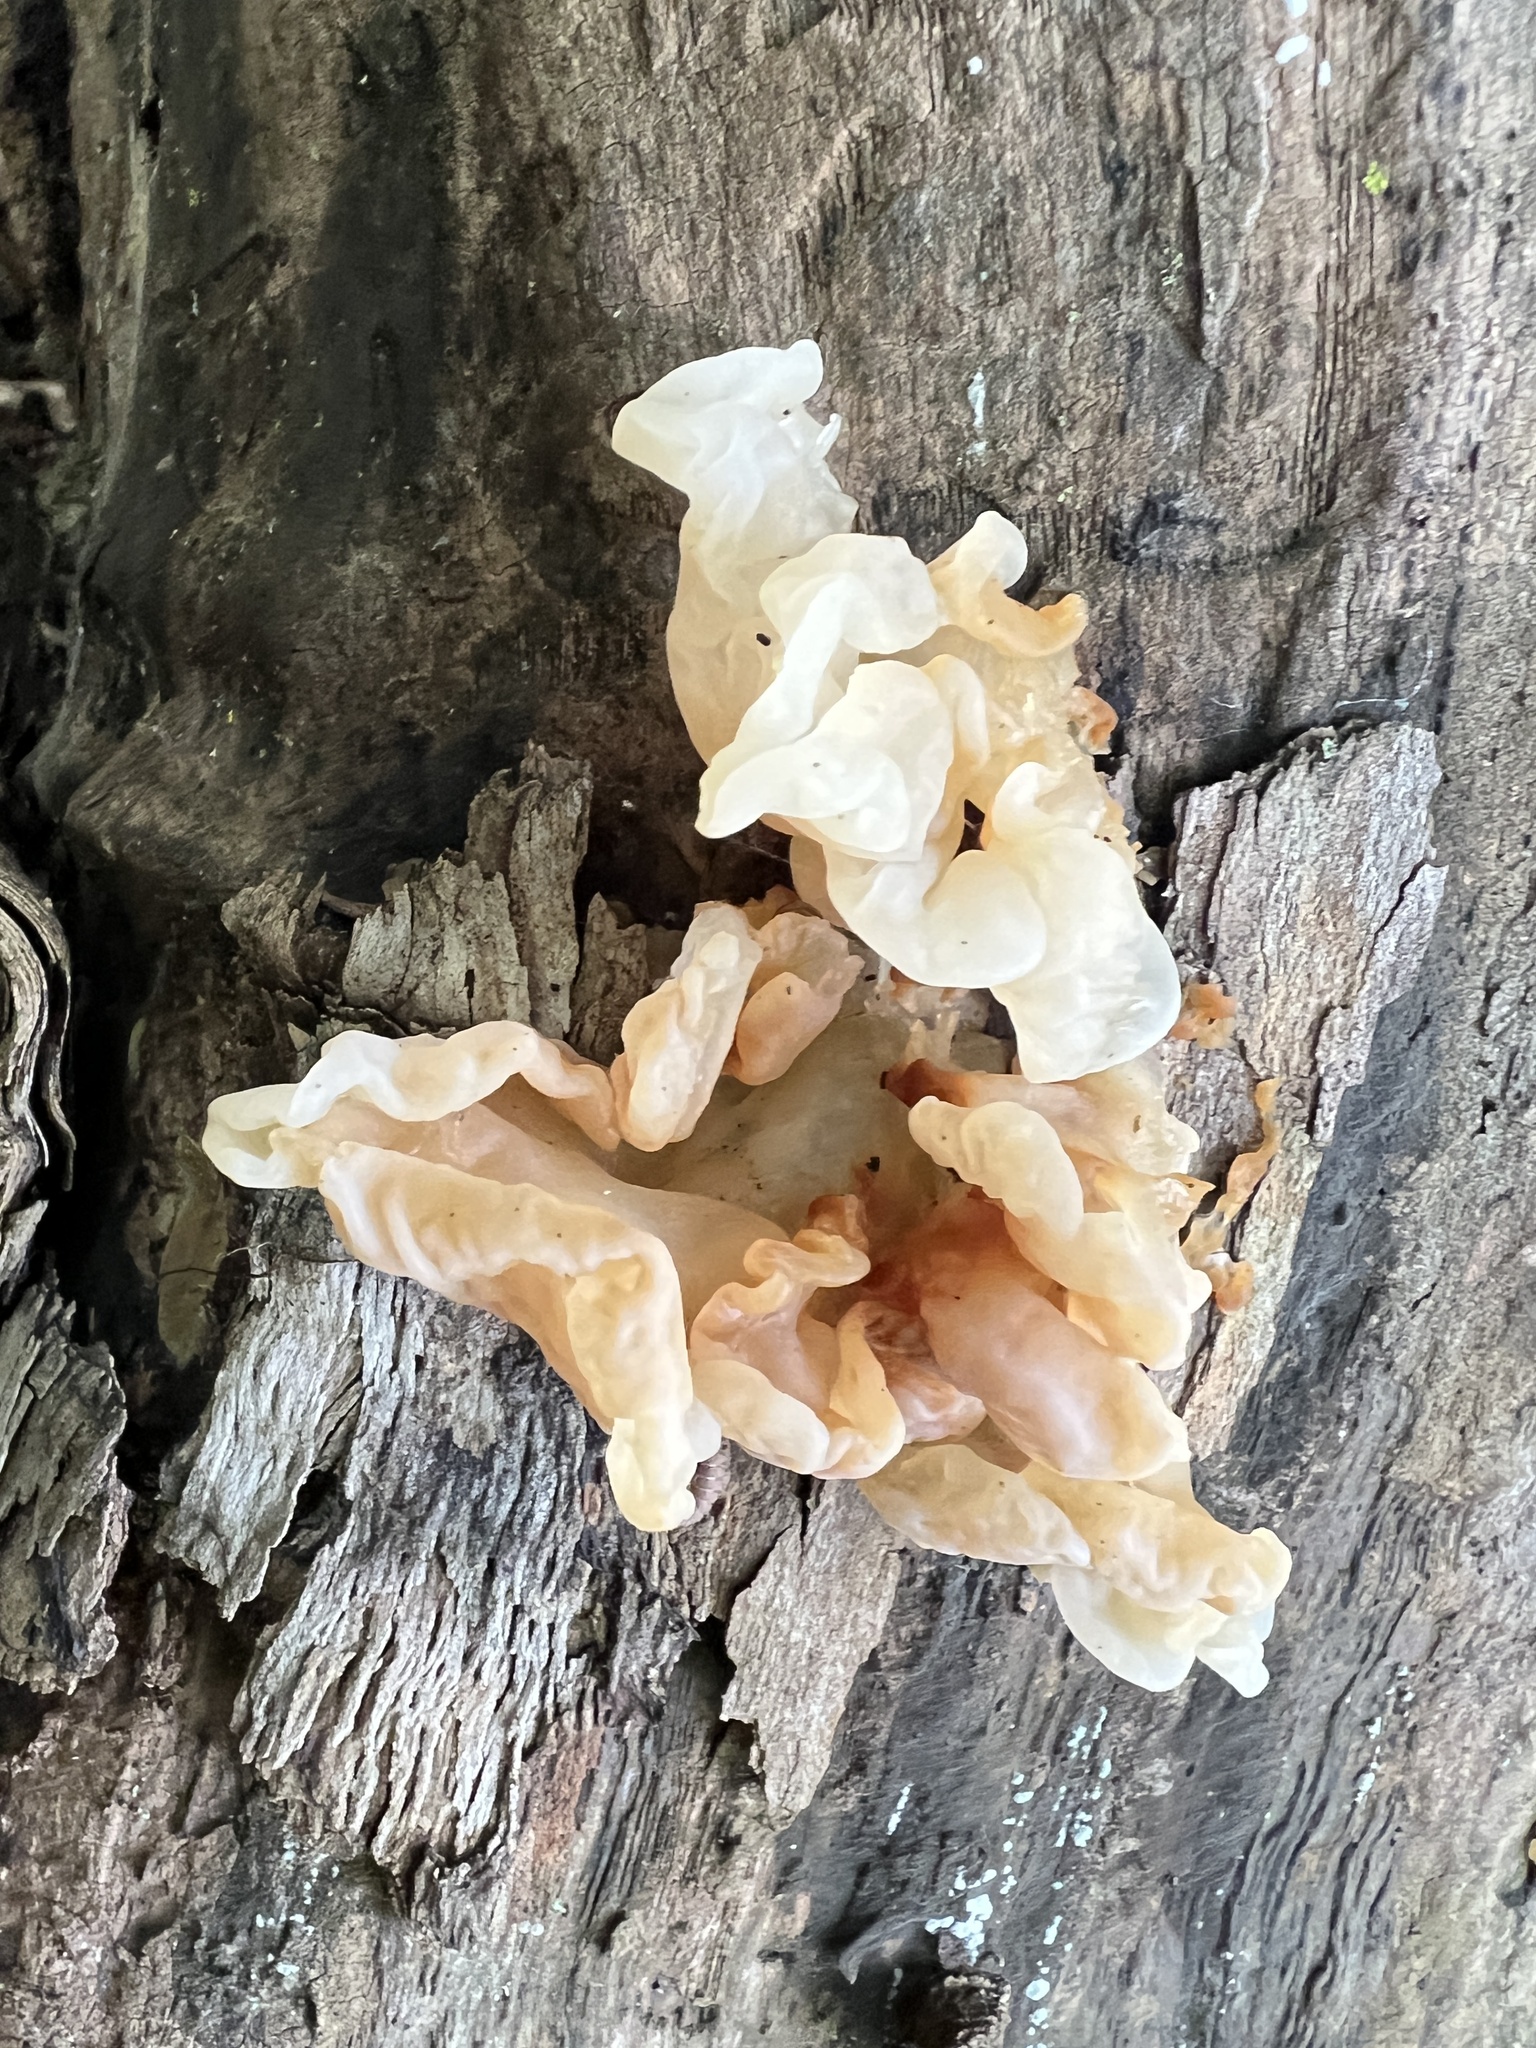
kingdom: Fungi
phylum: Basidiomycota
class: Agaricomycetes
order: Auriculariales
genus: Ductifera
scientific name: Ductifera pululahuana
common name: White jelly fungus
